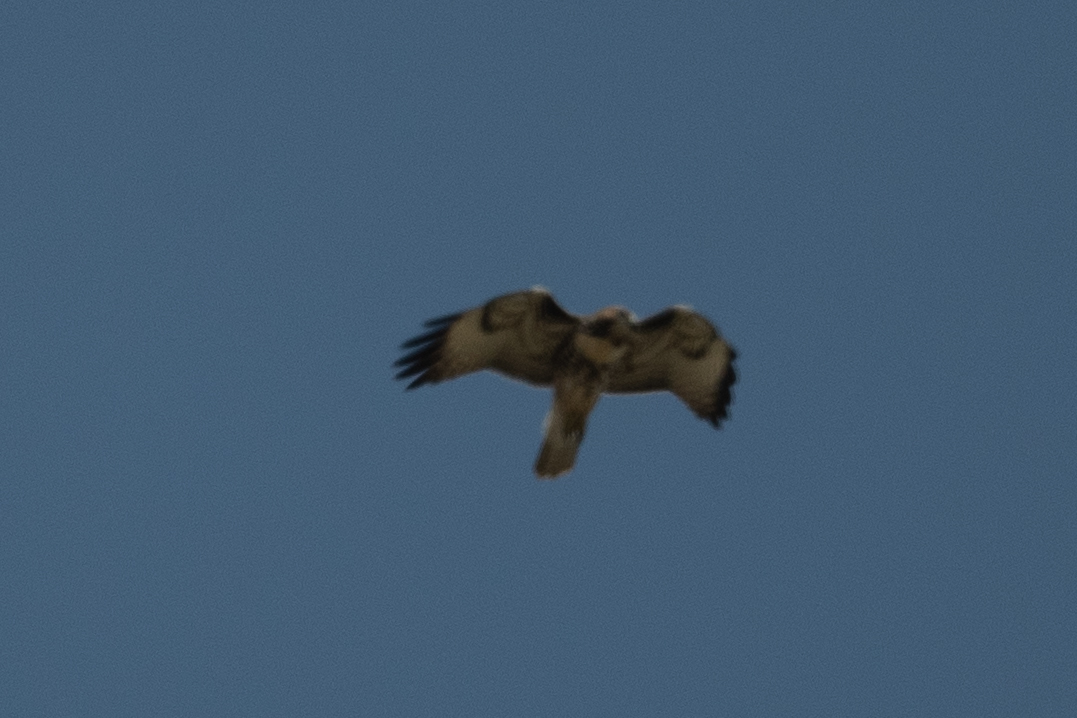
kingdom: Animalia
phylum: Chordata
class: Aves
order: Accipitriformes
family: Accipitridae
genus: Buteo
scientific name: Buteo jamaicensis
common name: Red-tailed hawk
